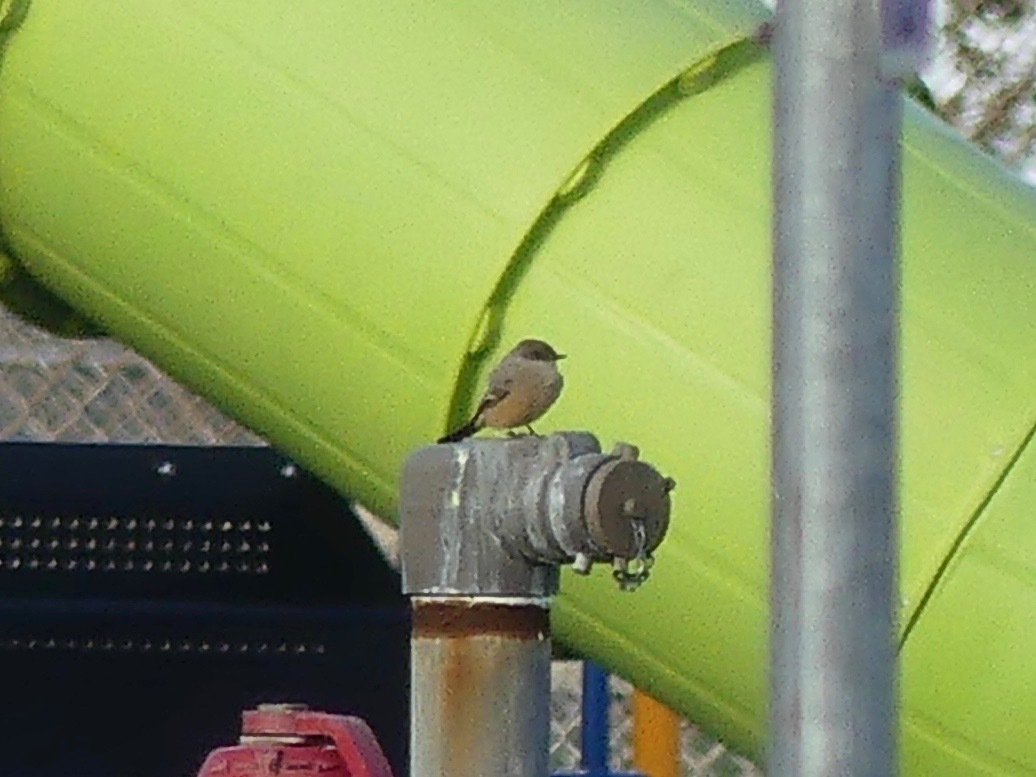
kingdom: Animalia
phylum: Chordata
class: Aves
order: Passeriformes
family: Tyrannidae
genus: Sayornis
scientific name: Sayornis saya
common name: Say's phoebe
